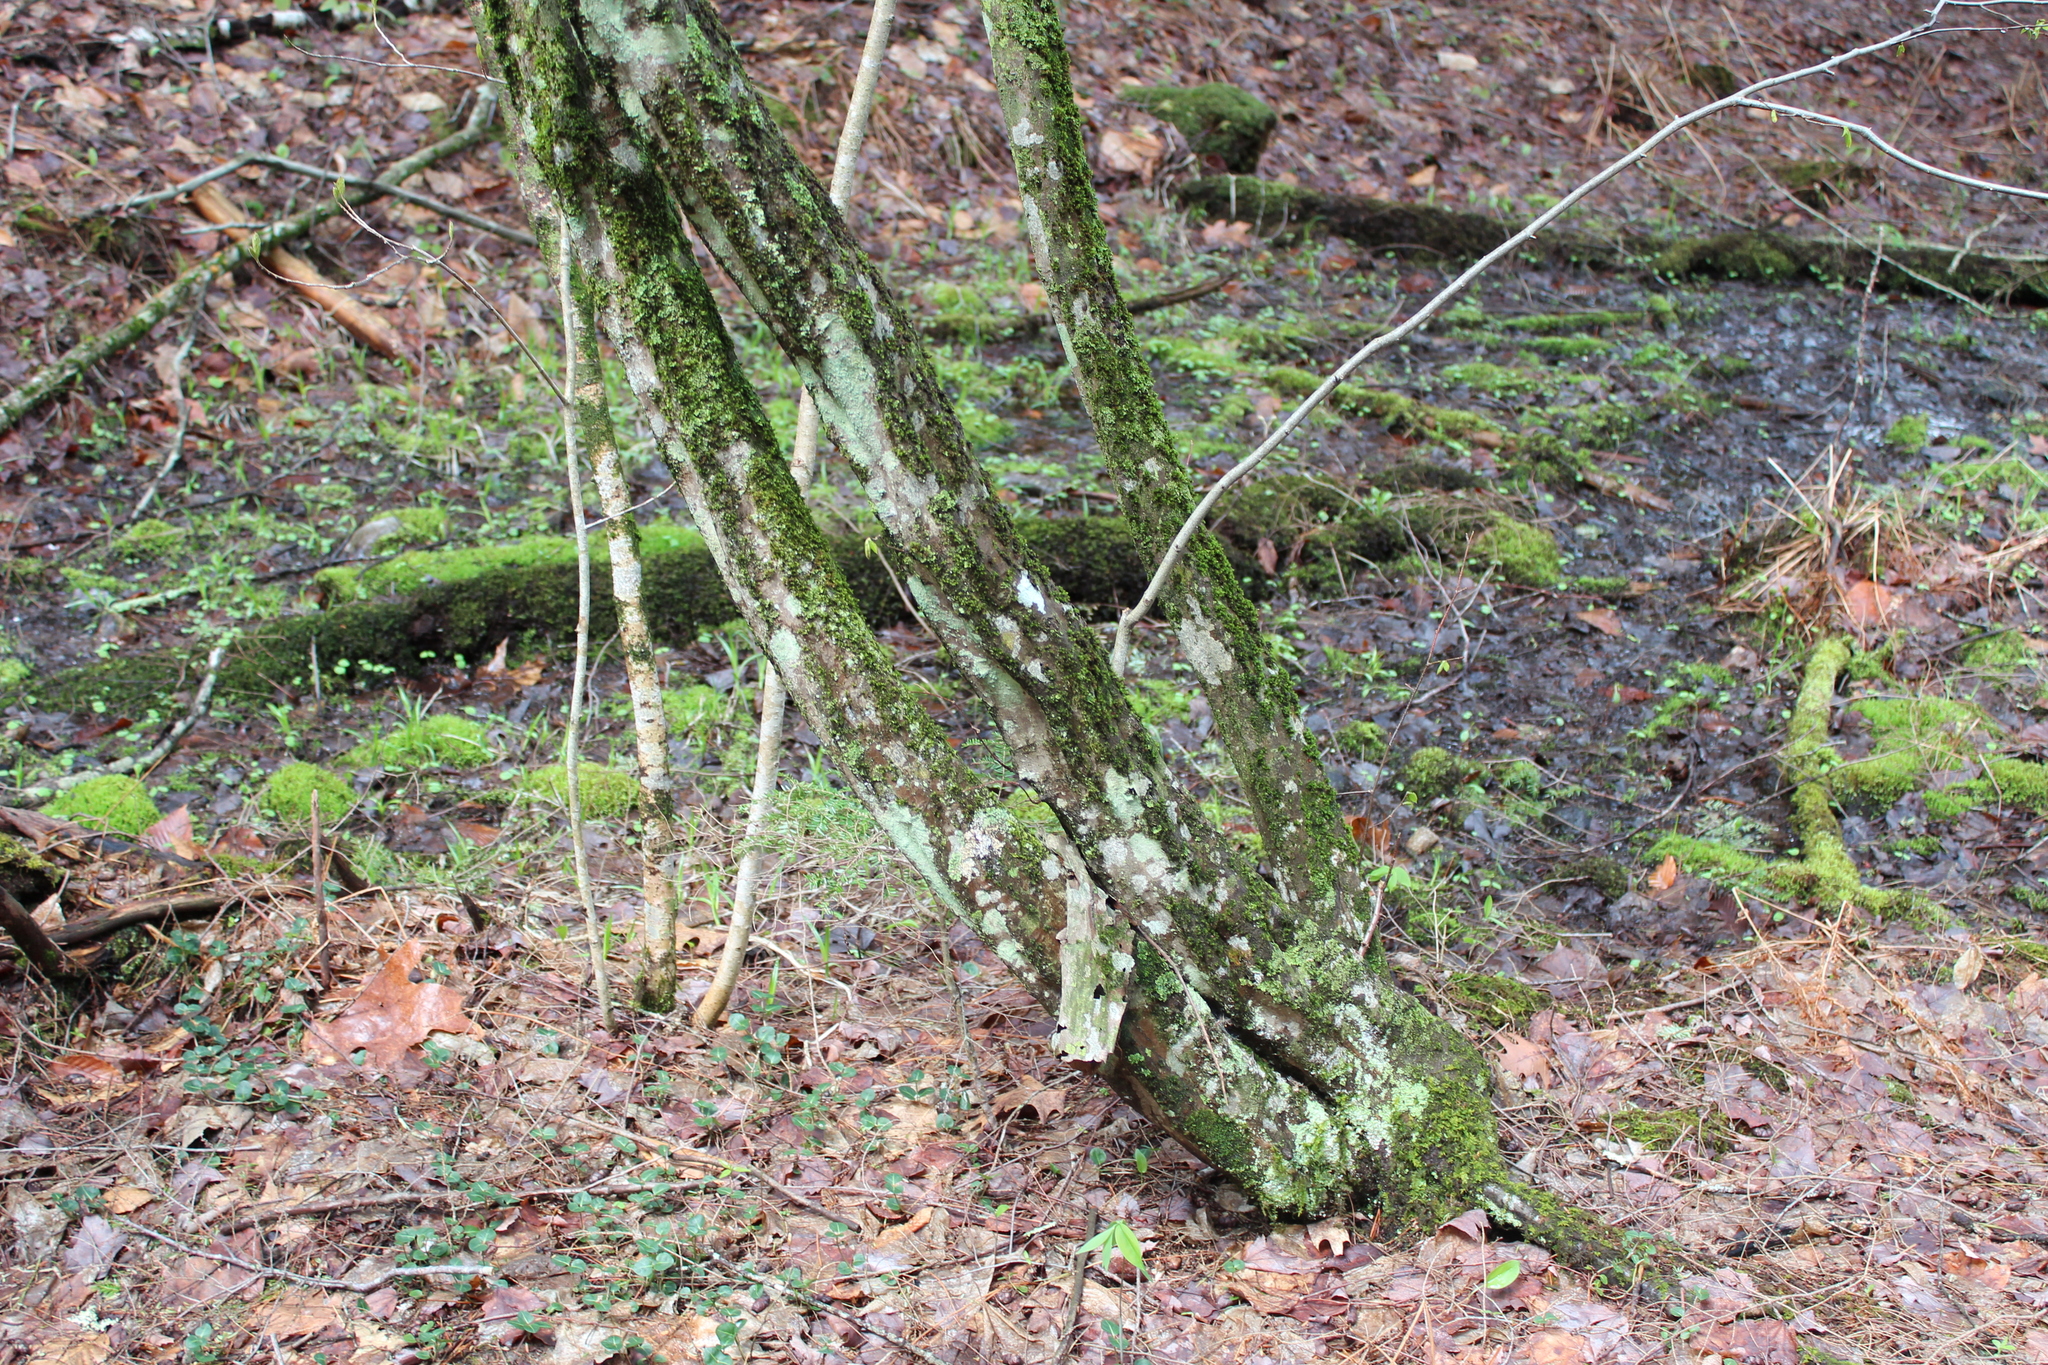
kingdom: Plantae
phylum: Tracheophyta
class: Magnoliopsida
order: Fagales
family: Betulaceae
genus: Carpinus
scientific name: Carpinus caroliniana
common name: American hornbeam
